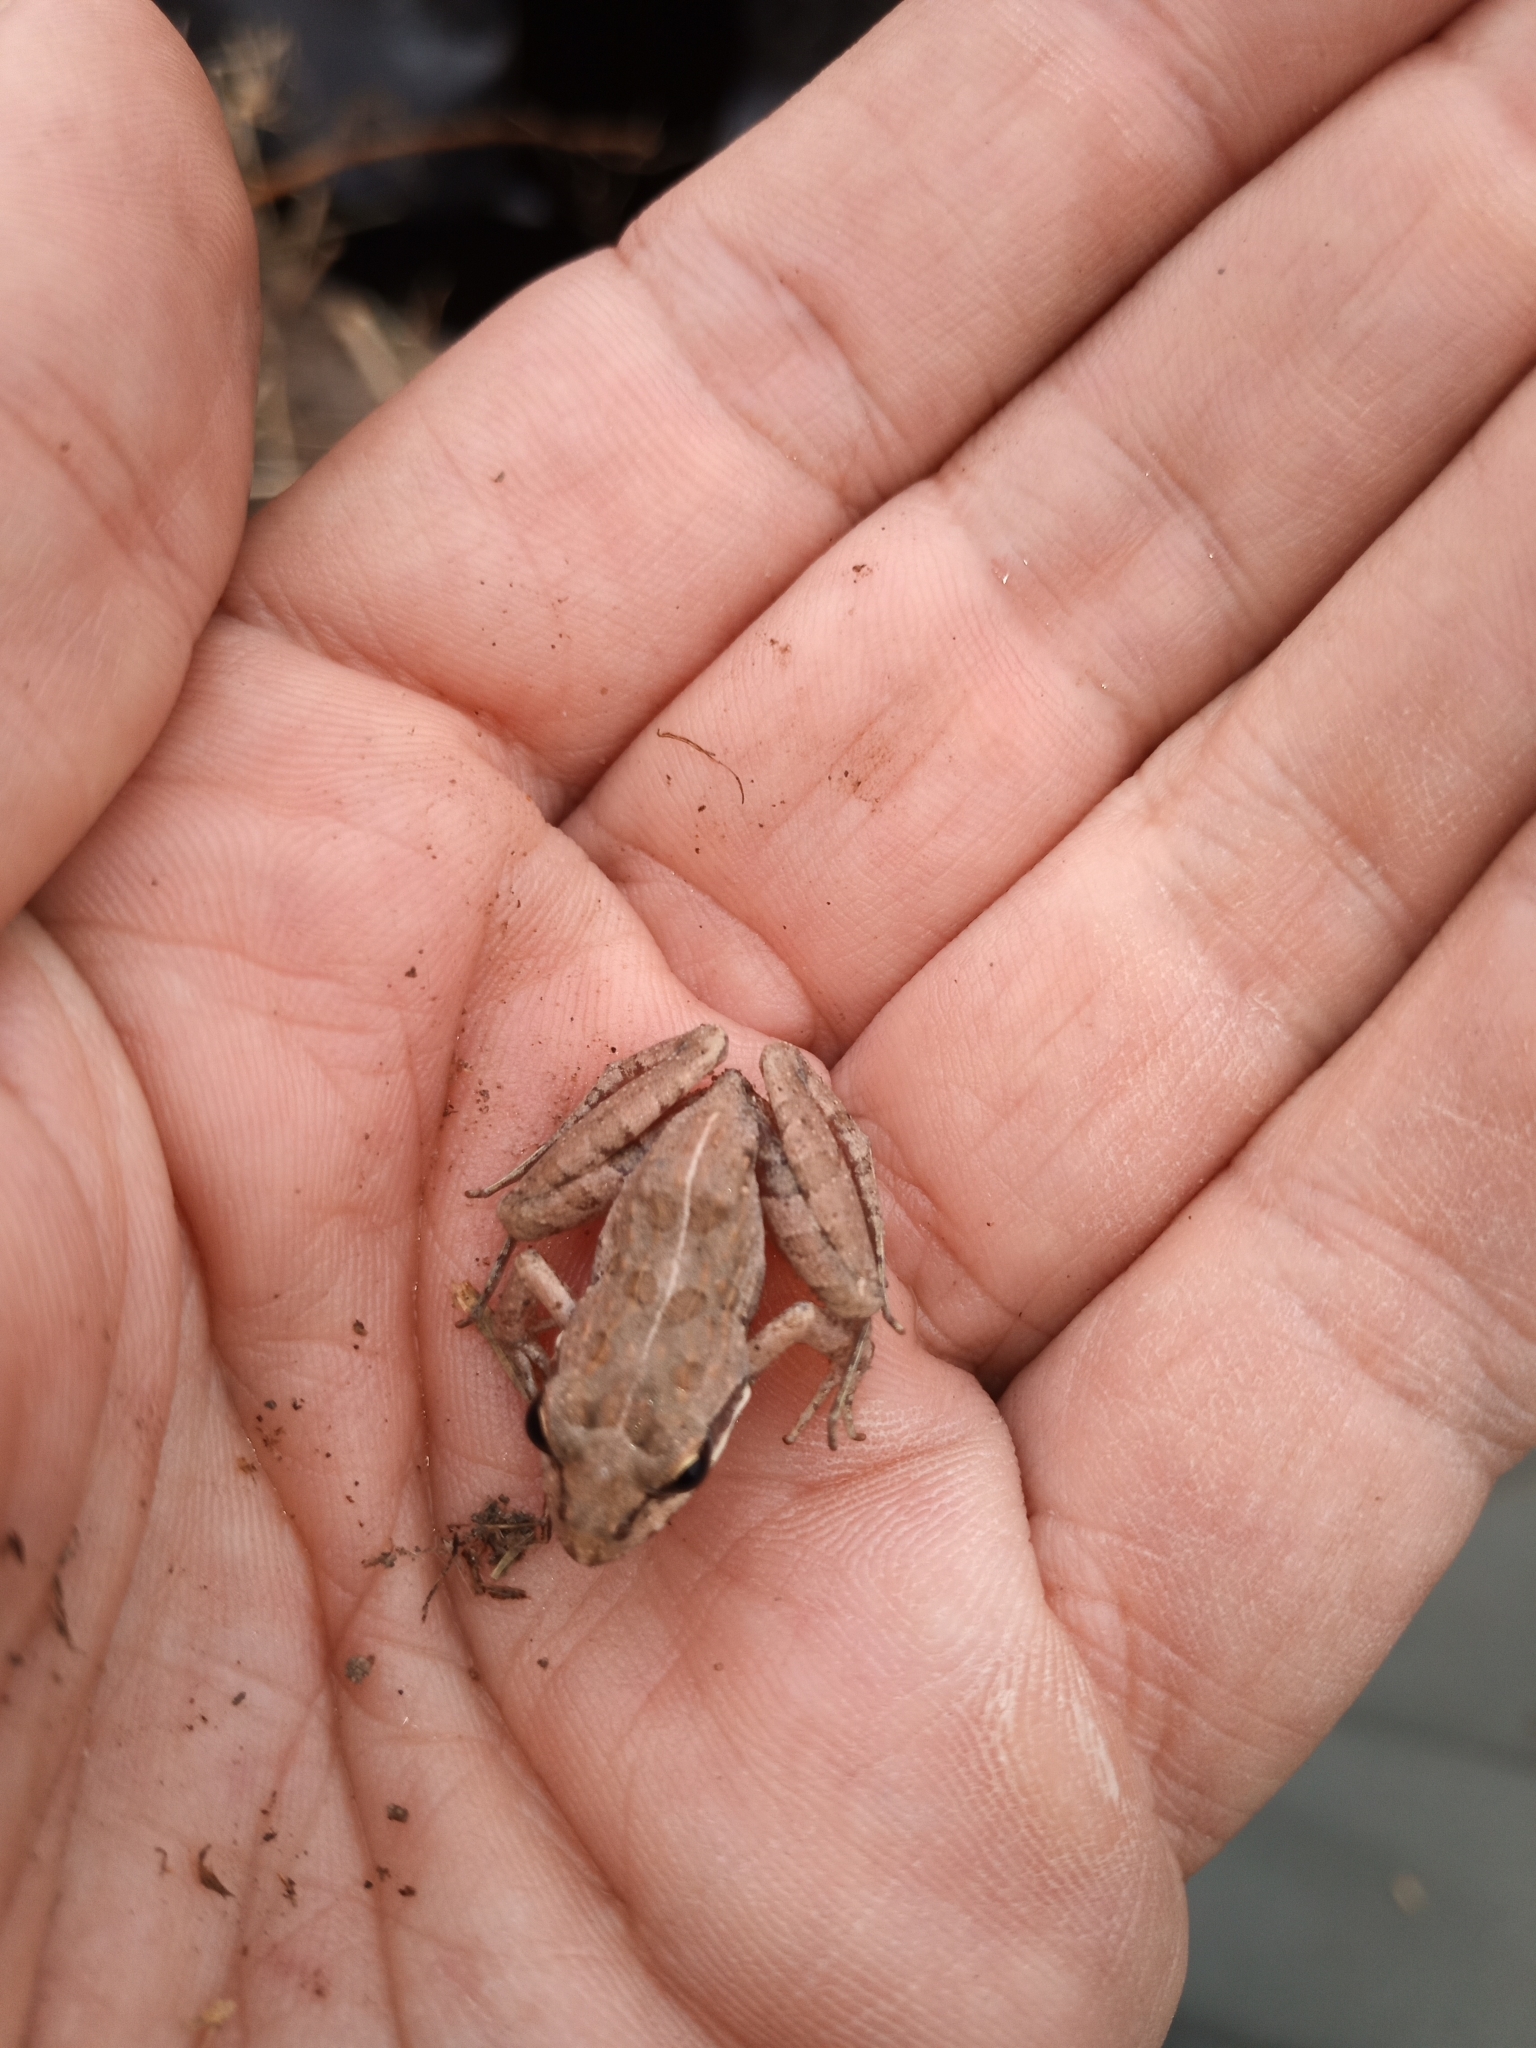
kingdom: Animalia
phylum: Chordata
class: Amphibia
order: Anura
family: Pyxicephalidae
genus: Strongylopus
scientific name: Strongylopus grayii
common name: Gray's stream frog
